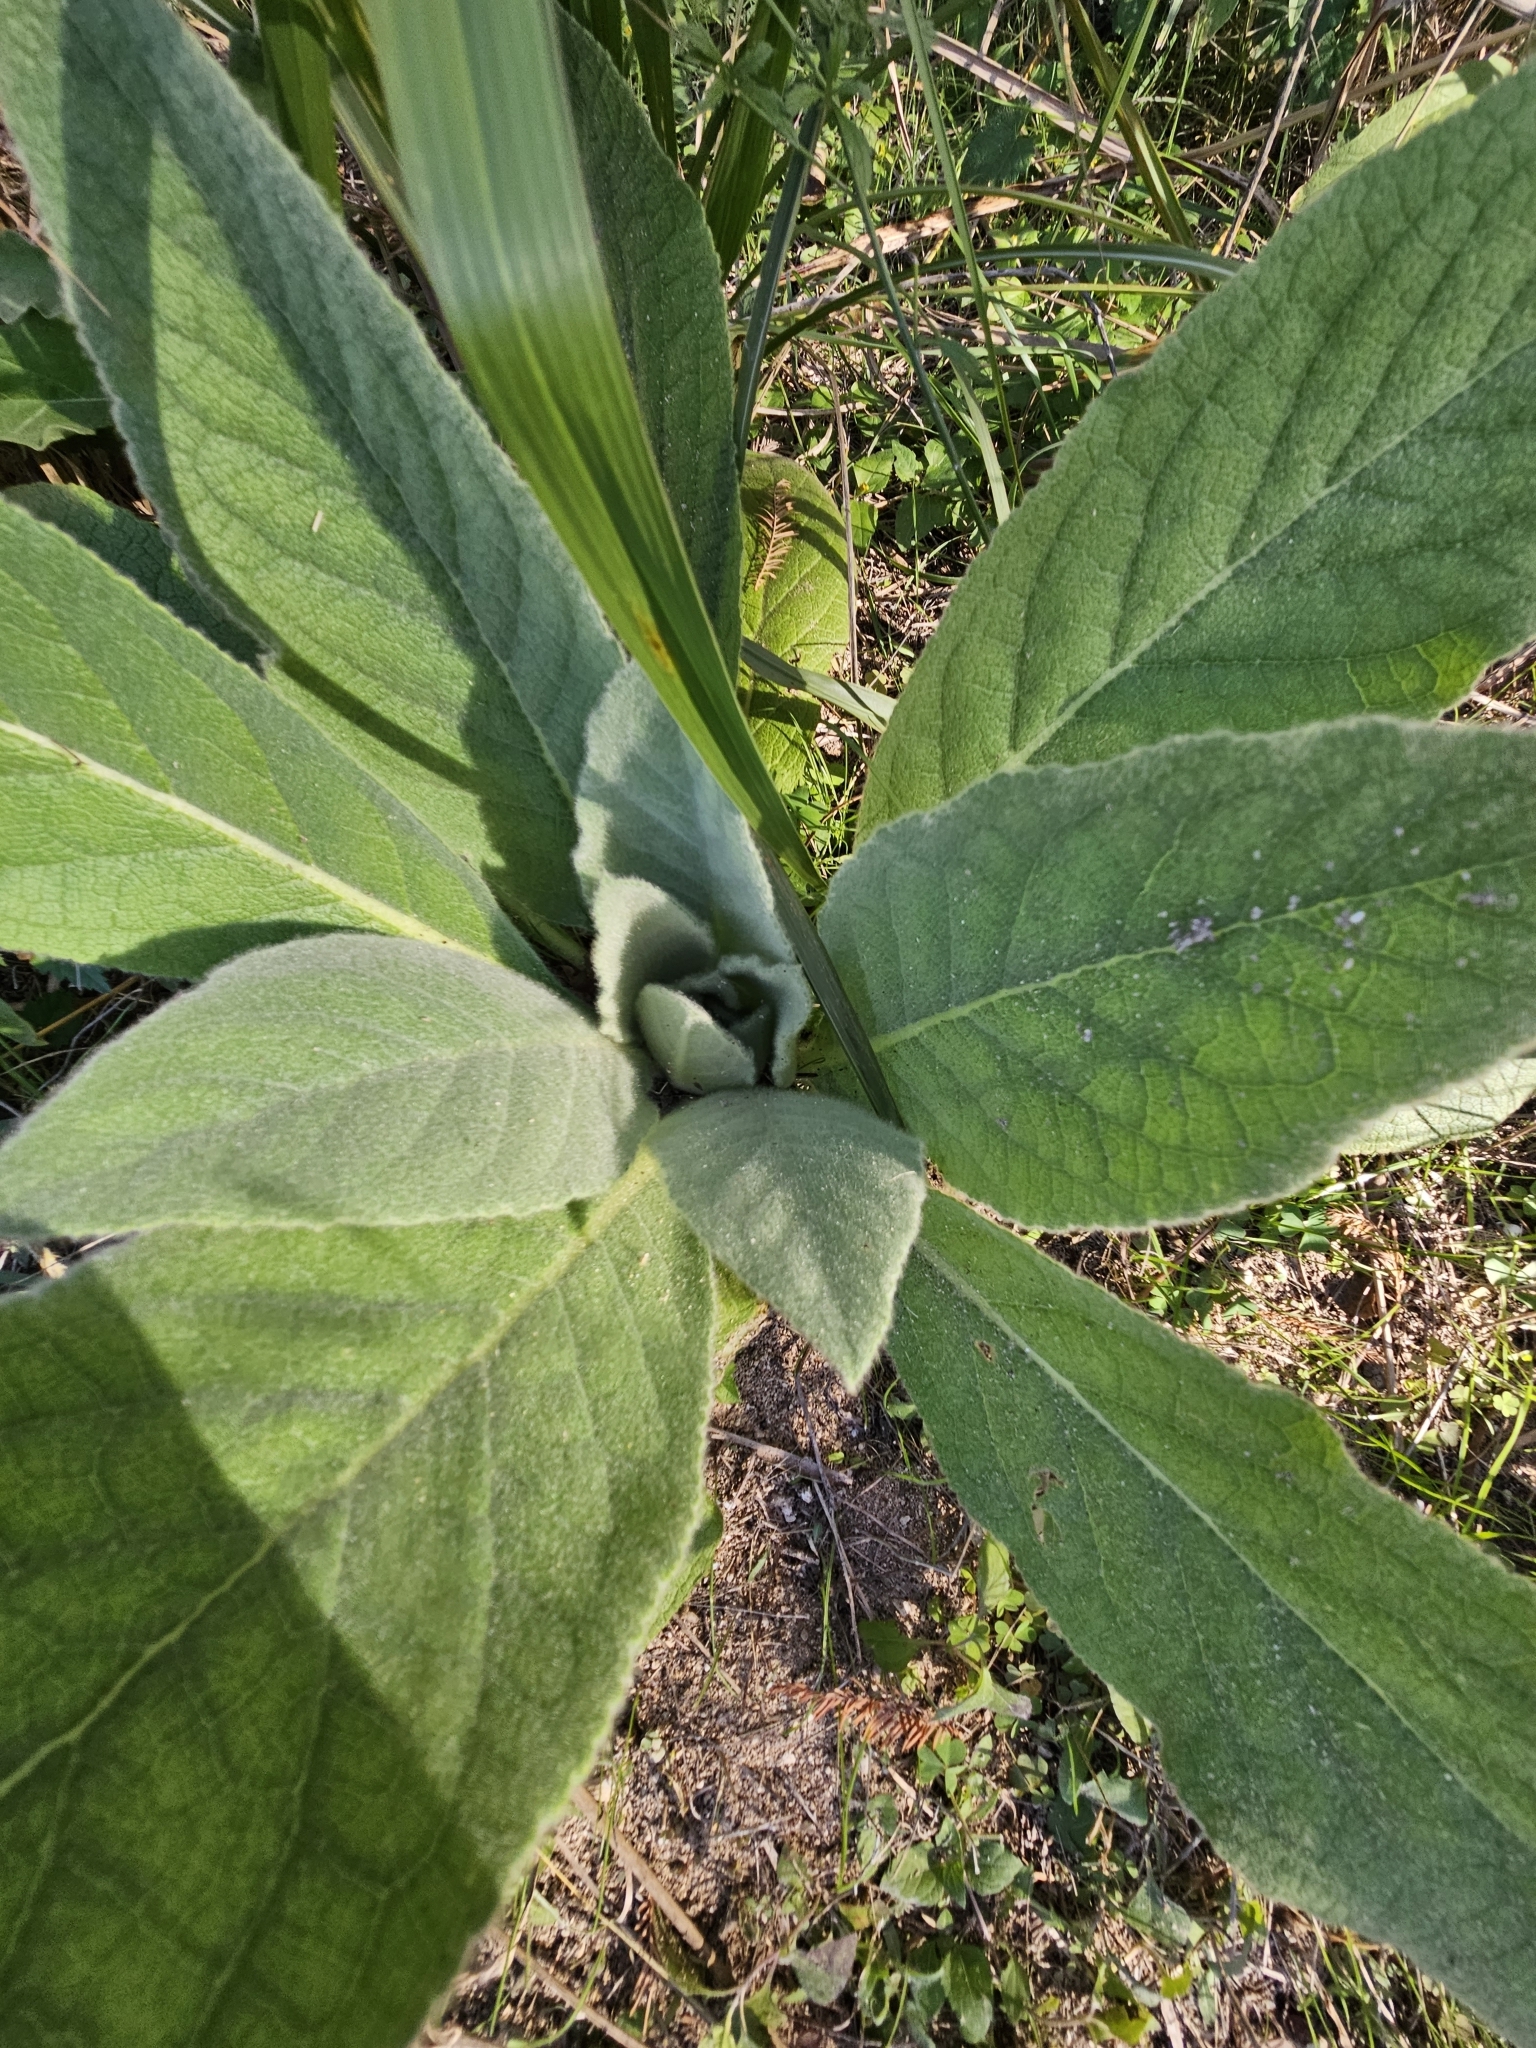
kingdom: Plantae
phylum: Tracheophyta
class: Magnoliopsida
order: Lamiales
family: Scrophulariaceae
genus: Verbascum
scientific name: Verbascum thapsus
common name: Common mullein
